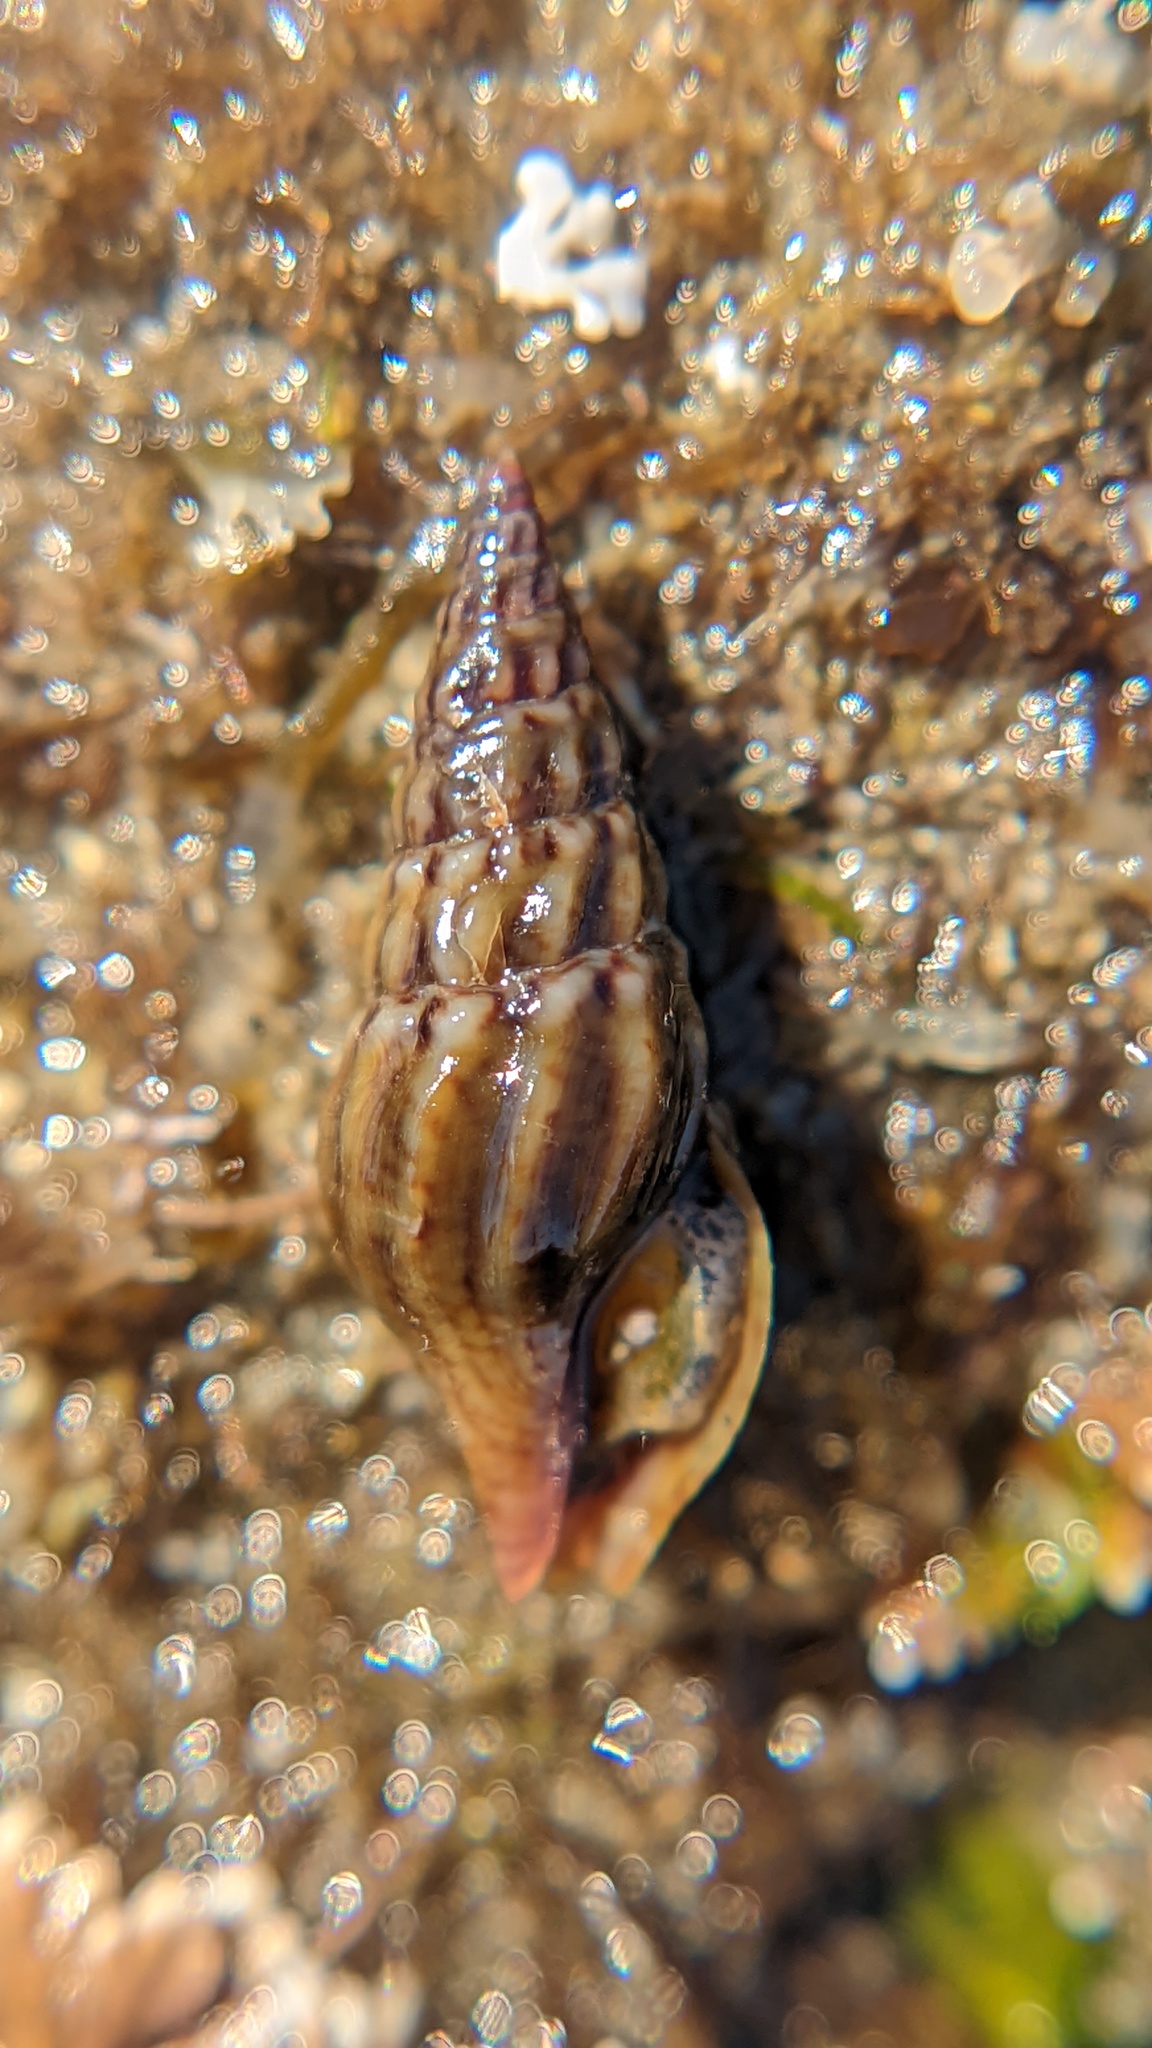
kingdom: Animalia
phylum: Mollusca
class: Gastropoda
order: Neogastropoda
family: Pseudomelatomidae
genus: Burchia
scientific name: Burchia semiinflata
